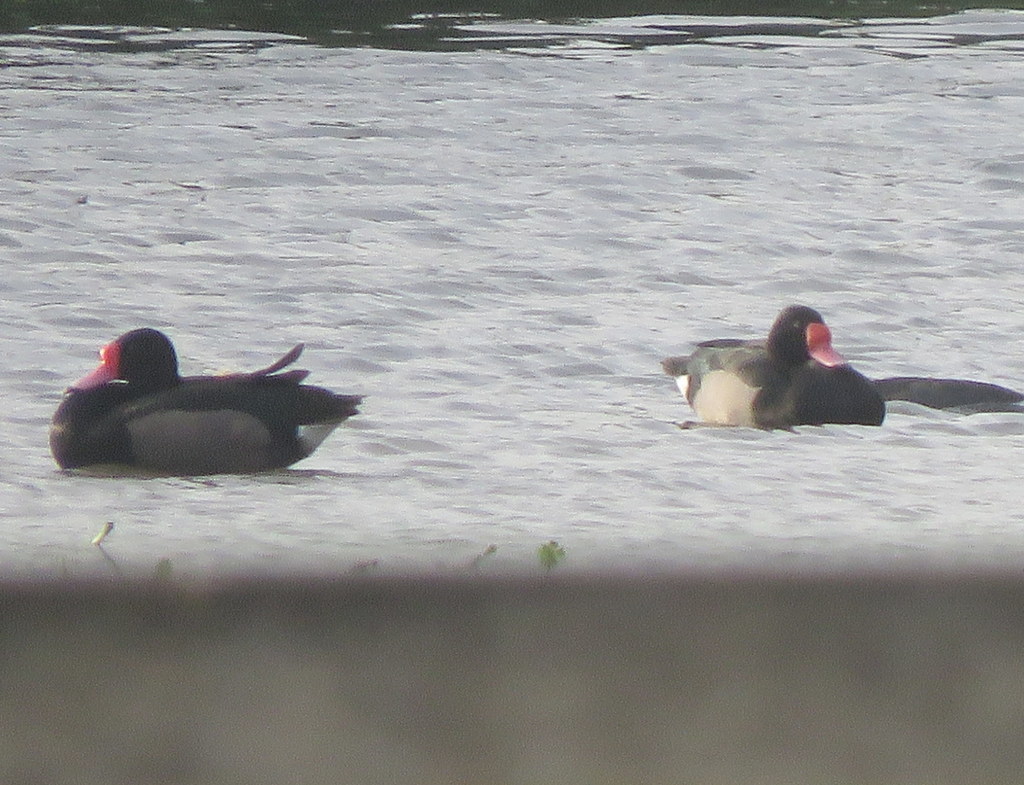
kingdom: Animalia
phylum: Chordata
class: Aves
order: Anseriformes
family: Anatidae
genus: Netta
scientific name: Netta peposaca
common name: Rosy-billed pochard
